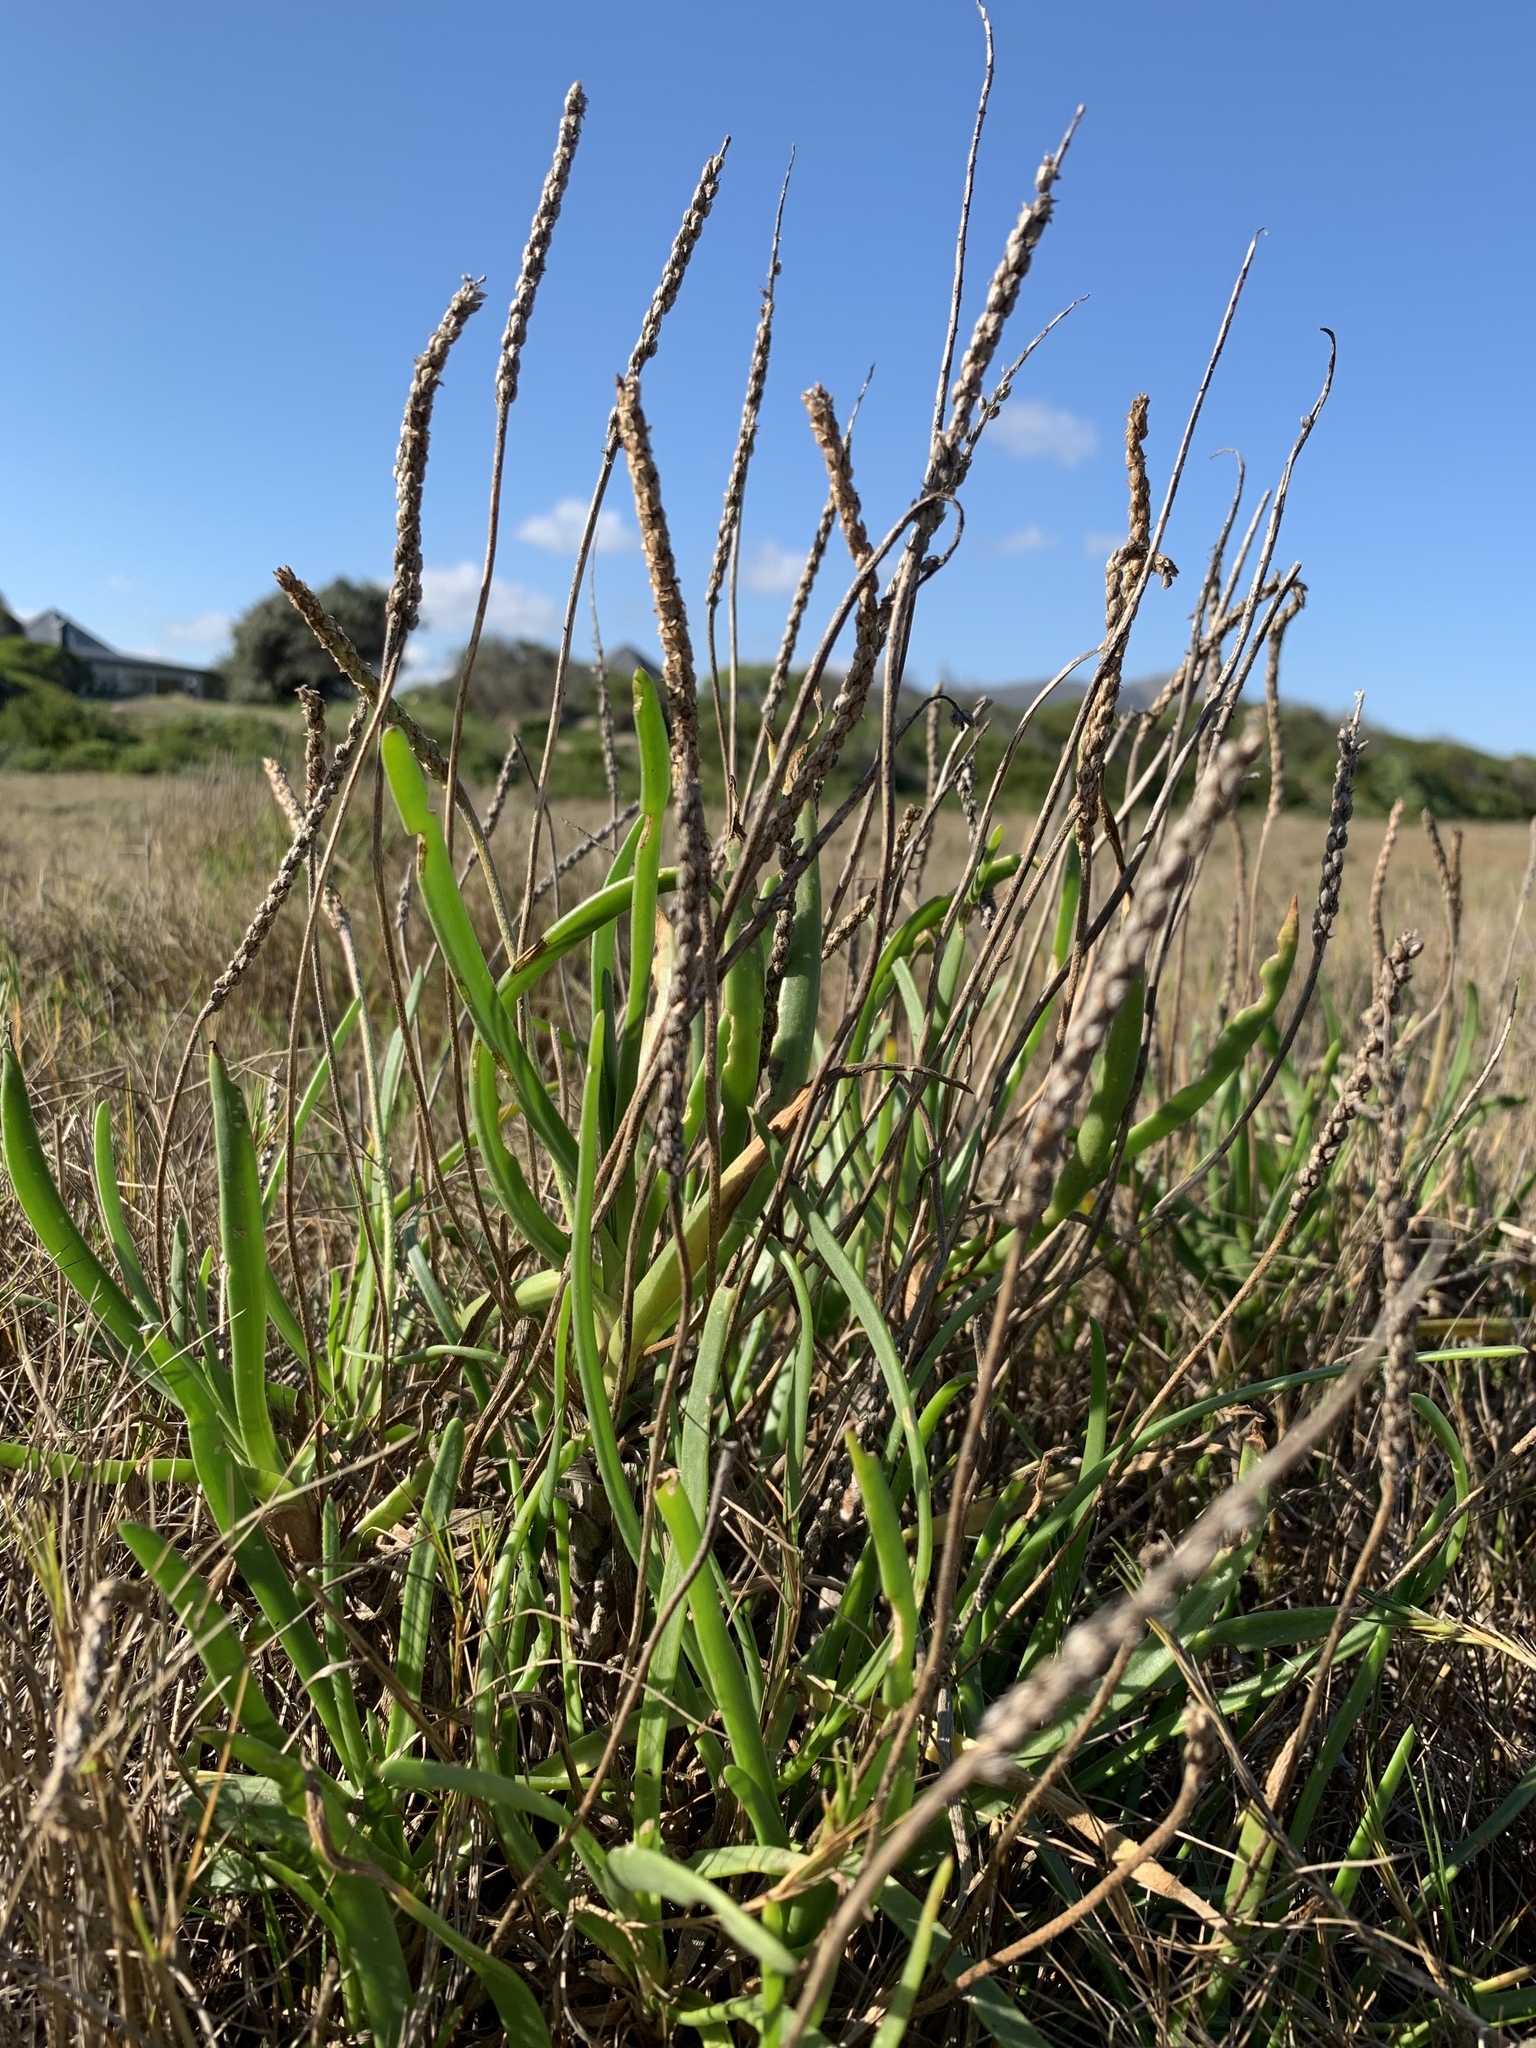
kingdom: Plantae
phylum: Tracheophyta
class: Magnoliopsida
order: Lamiales
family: Plantaginaceae
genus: Plantago
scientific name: Plantago carnosa
